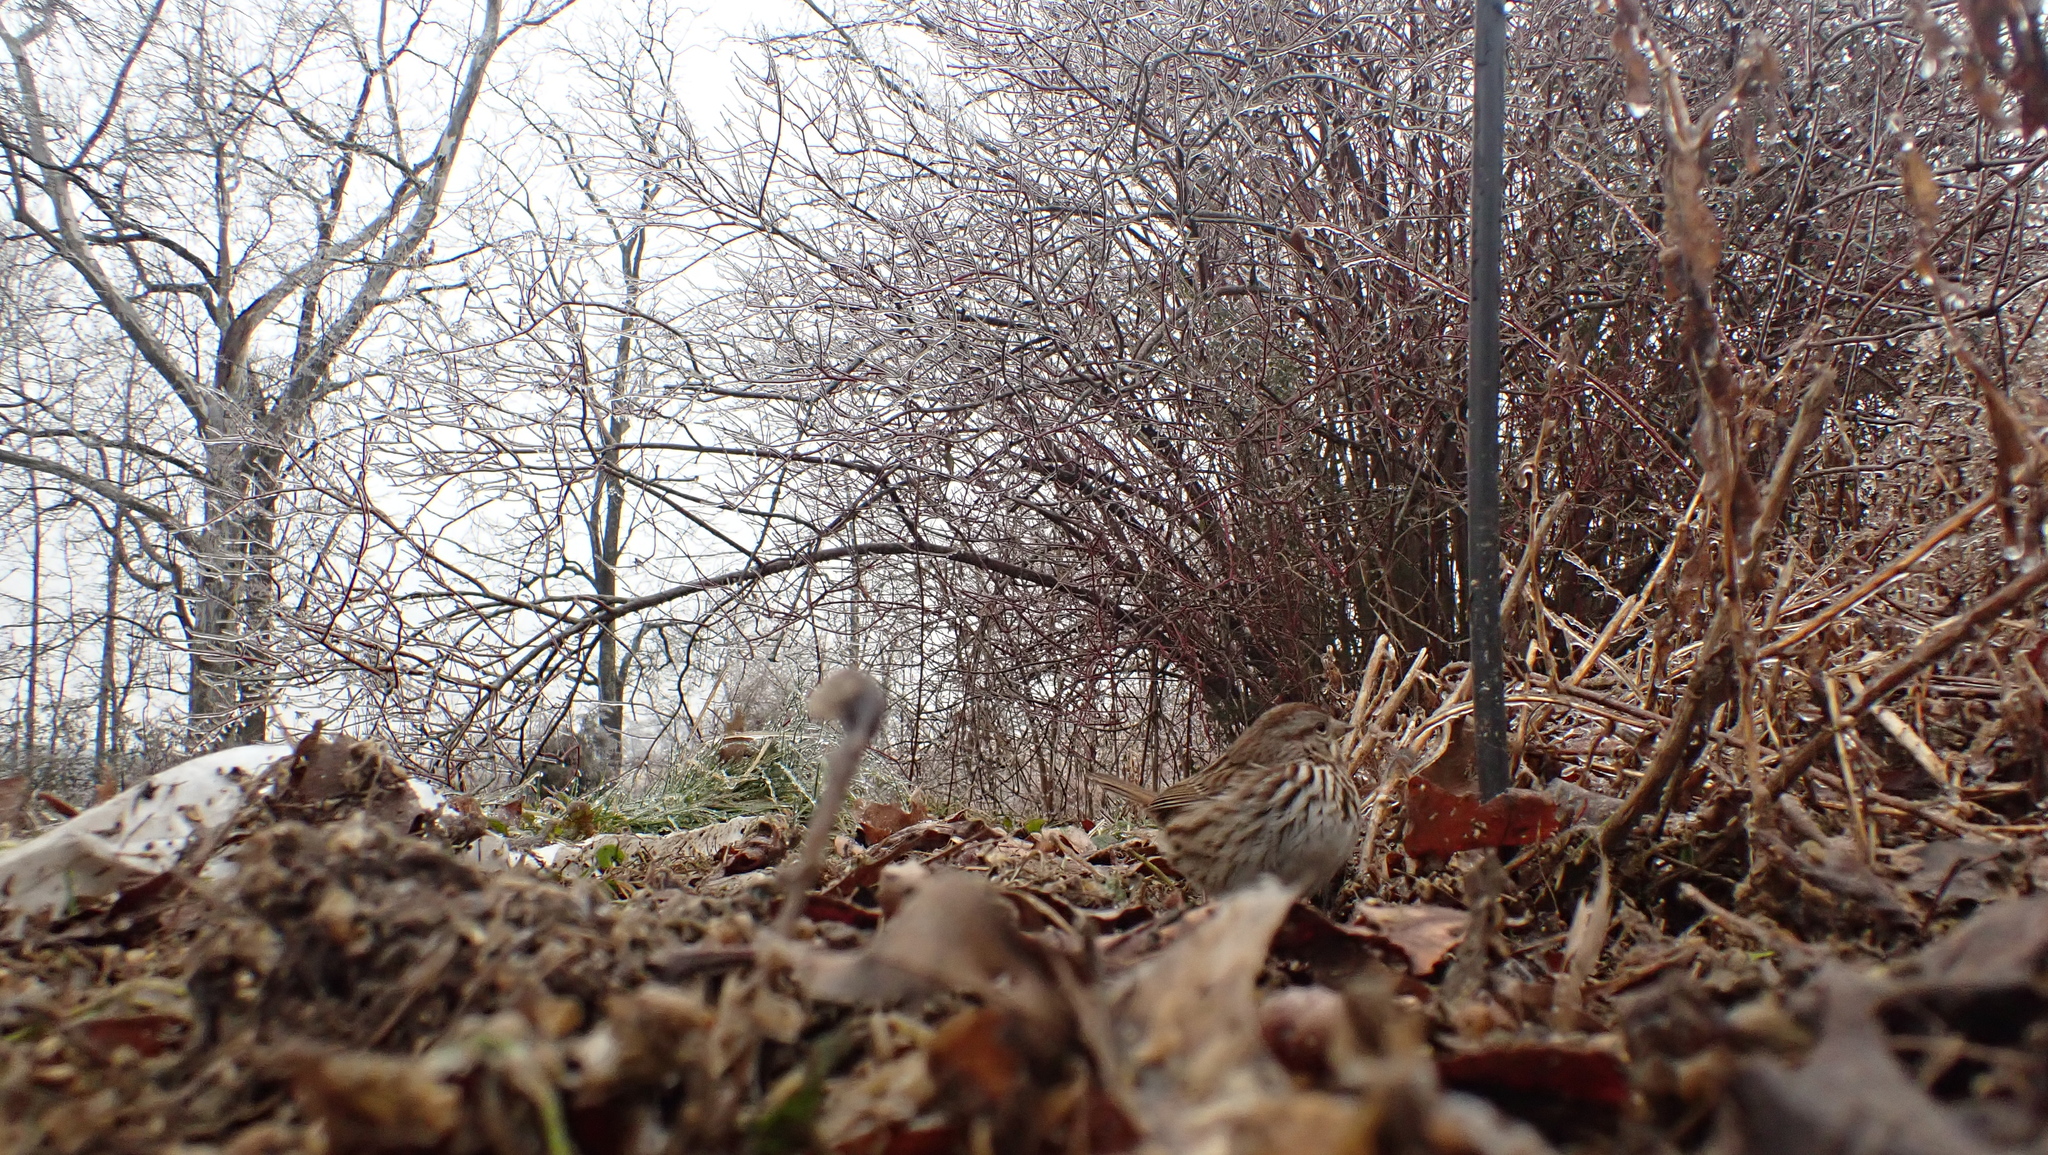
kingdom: Animalia
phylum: Chordata
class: Aves
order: Passeriformes
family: Passerellidae
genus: Melospiza
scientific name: Melospiza melodia
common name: Song sparrow
